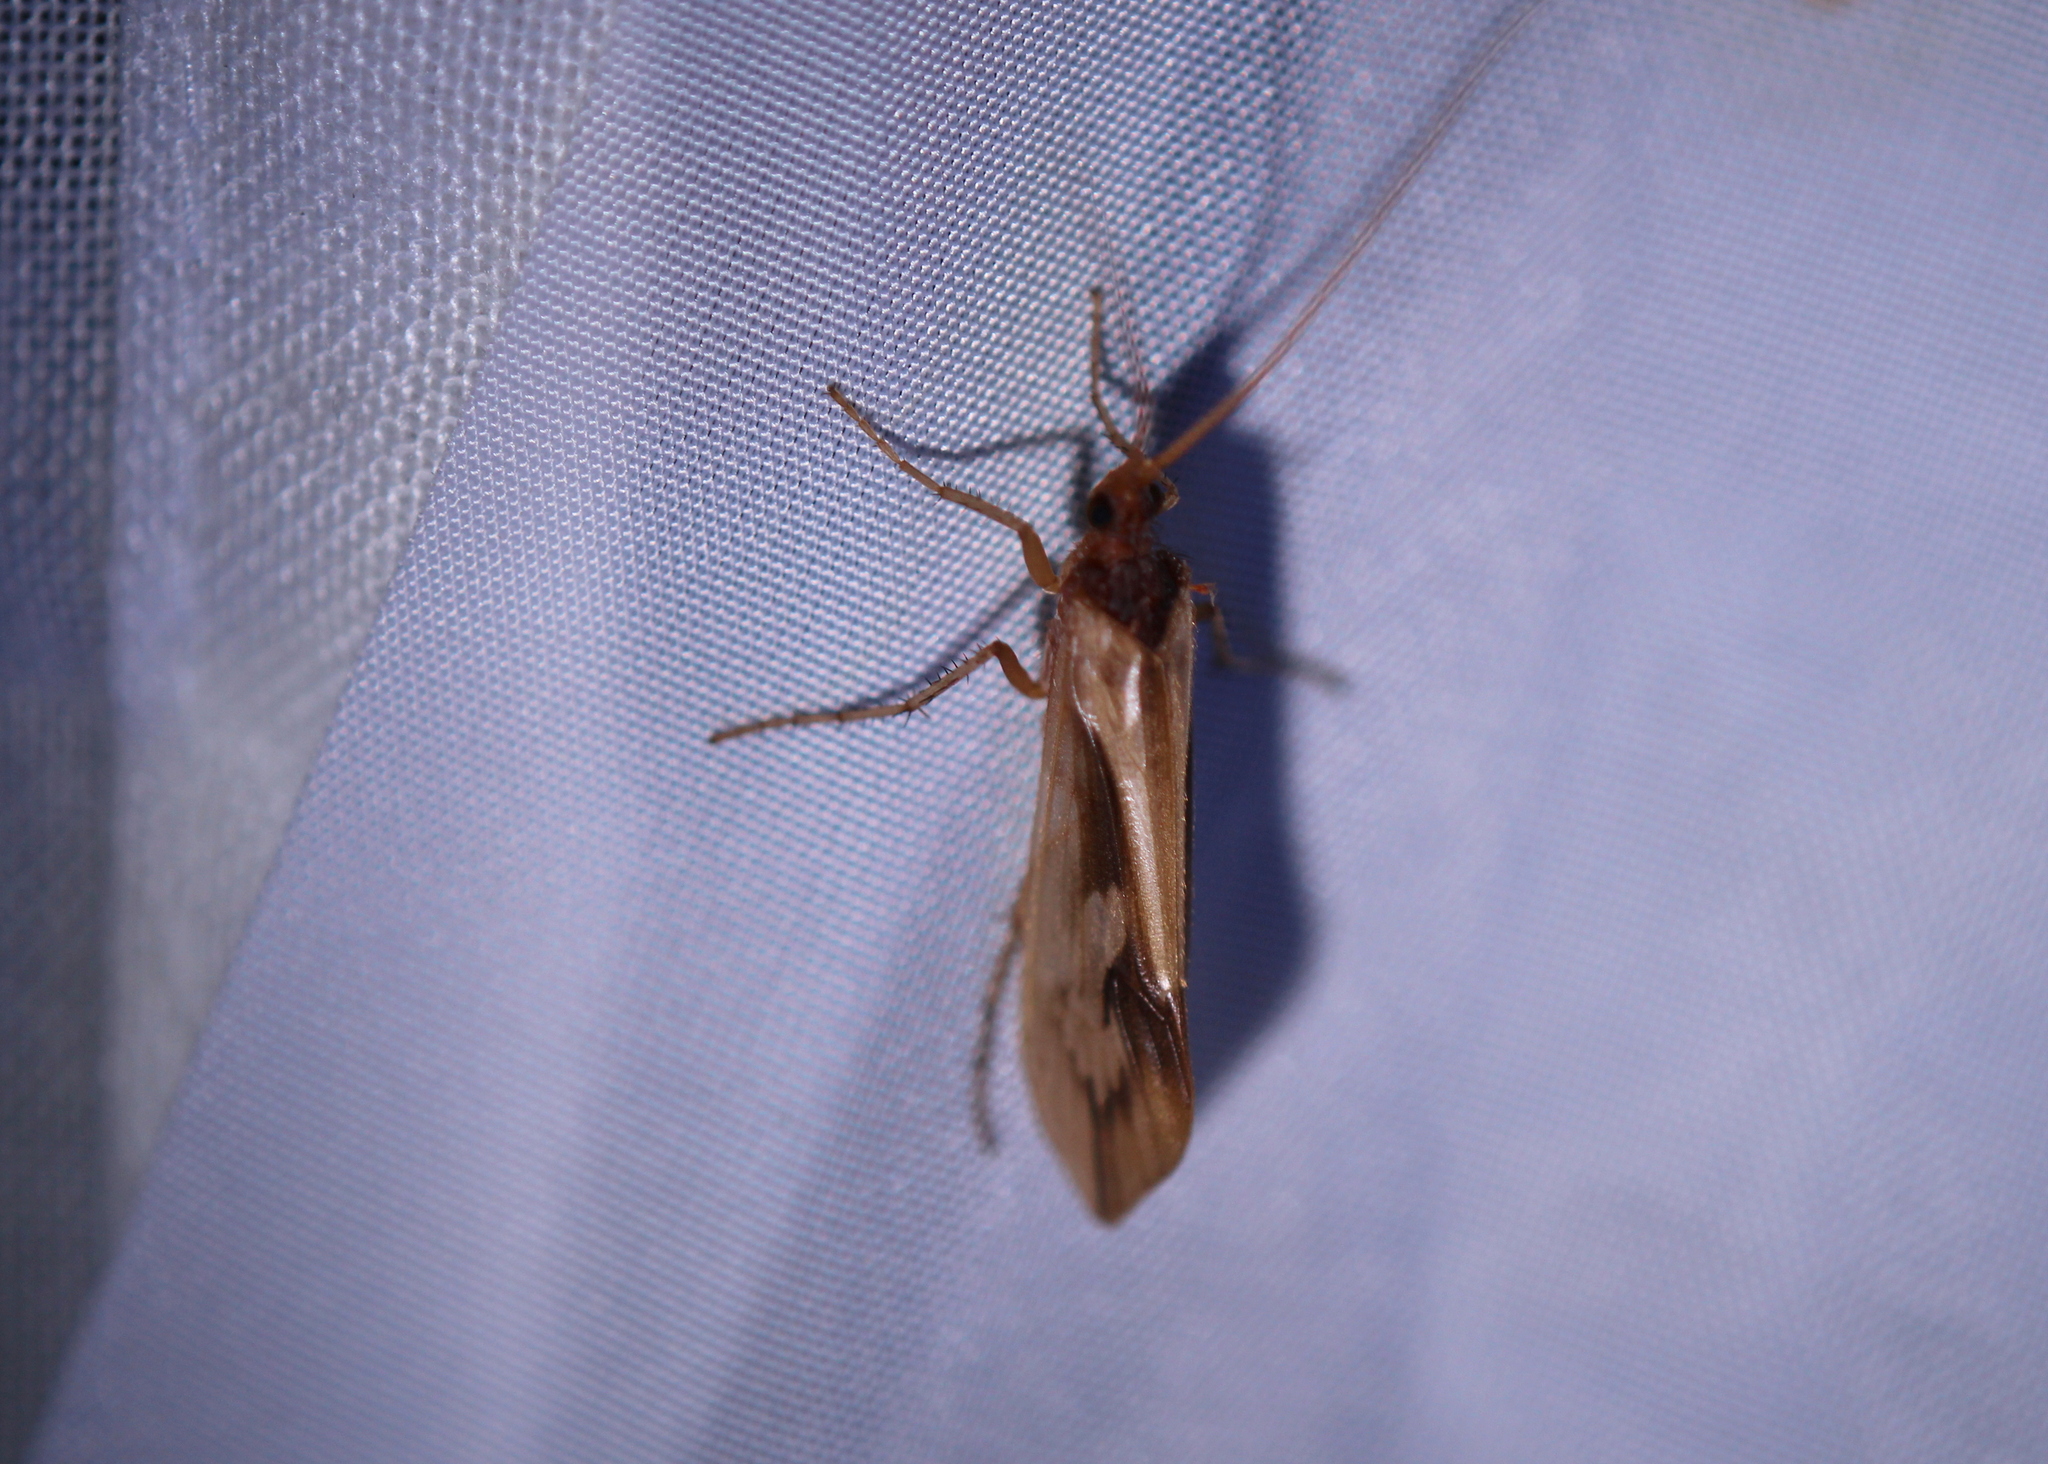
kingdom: Animalia
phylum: Arthropoda
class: Insecta
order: Trichoptera
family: Limnephilidae
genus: Platycentropus
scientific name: Platycentropus radiatus
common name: Chocolate-and-cream sedge
